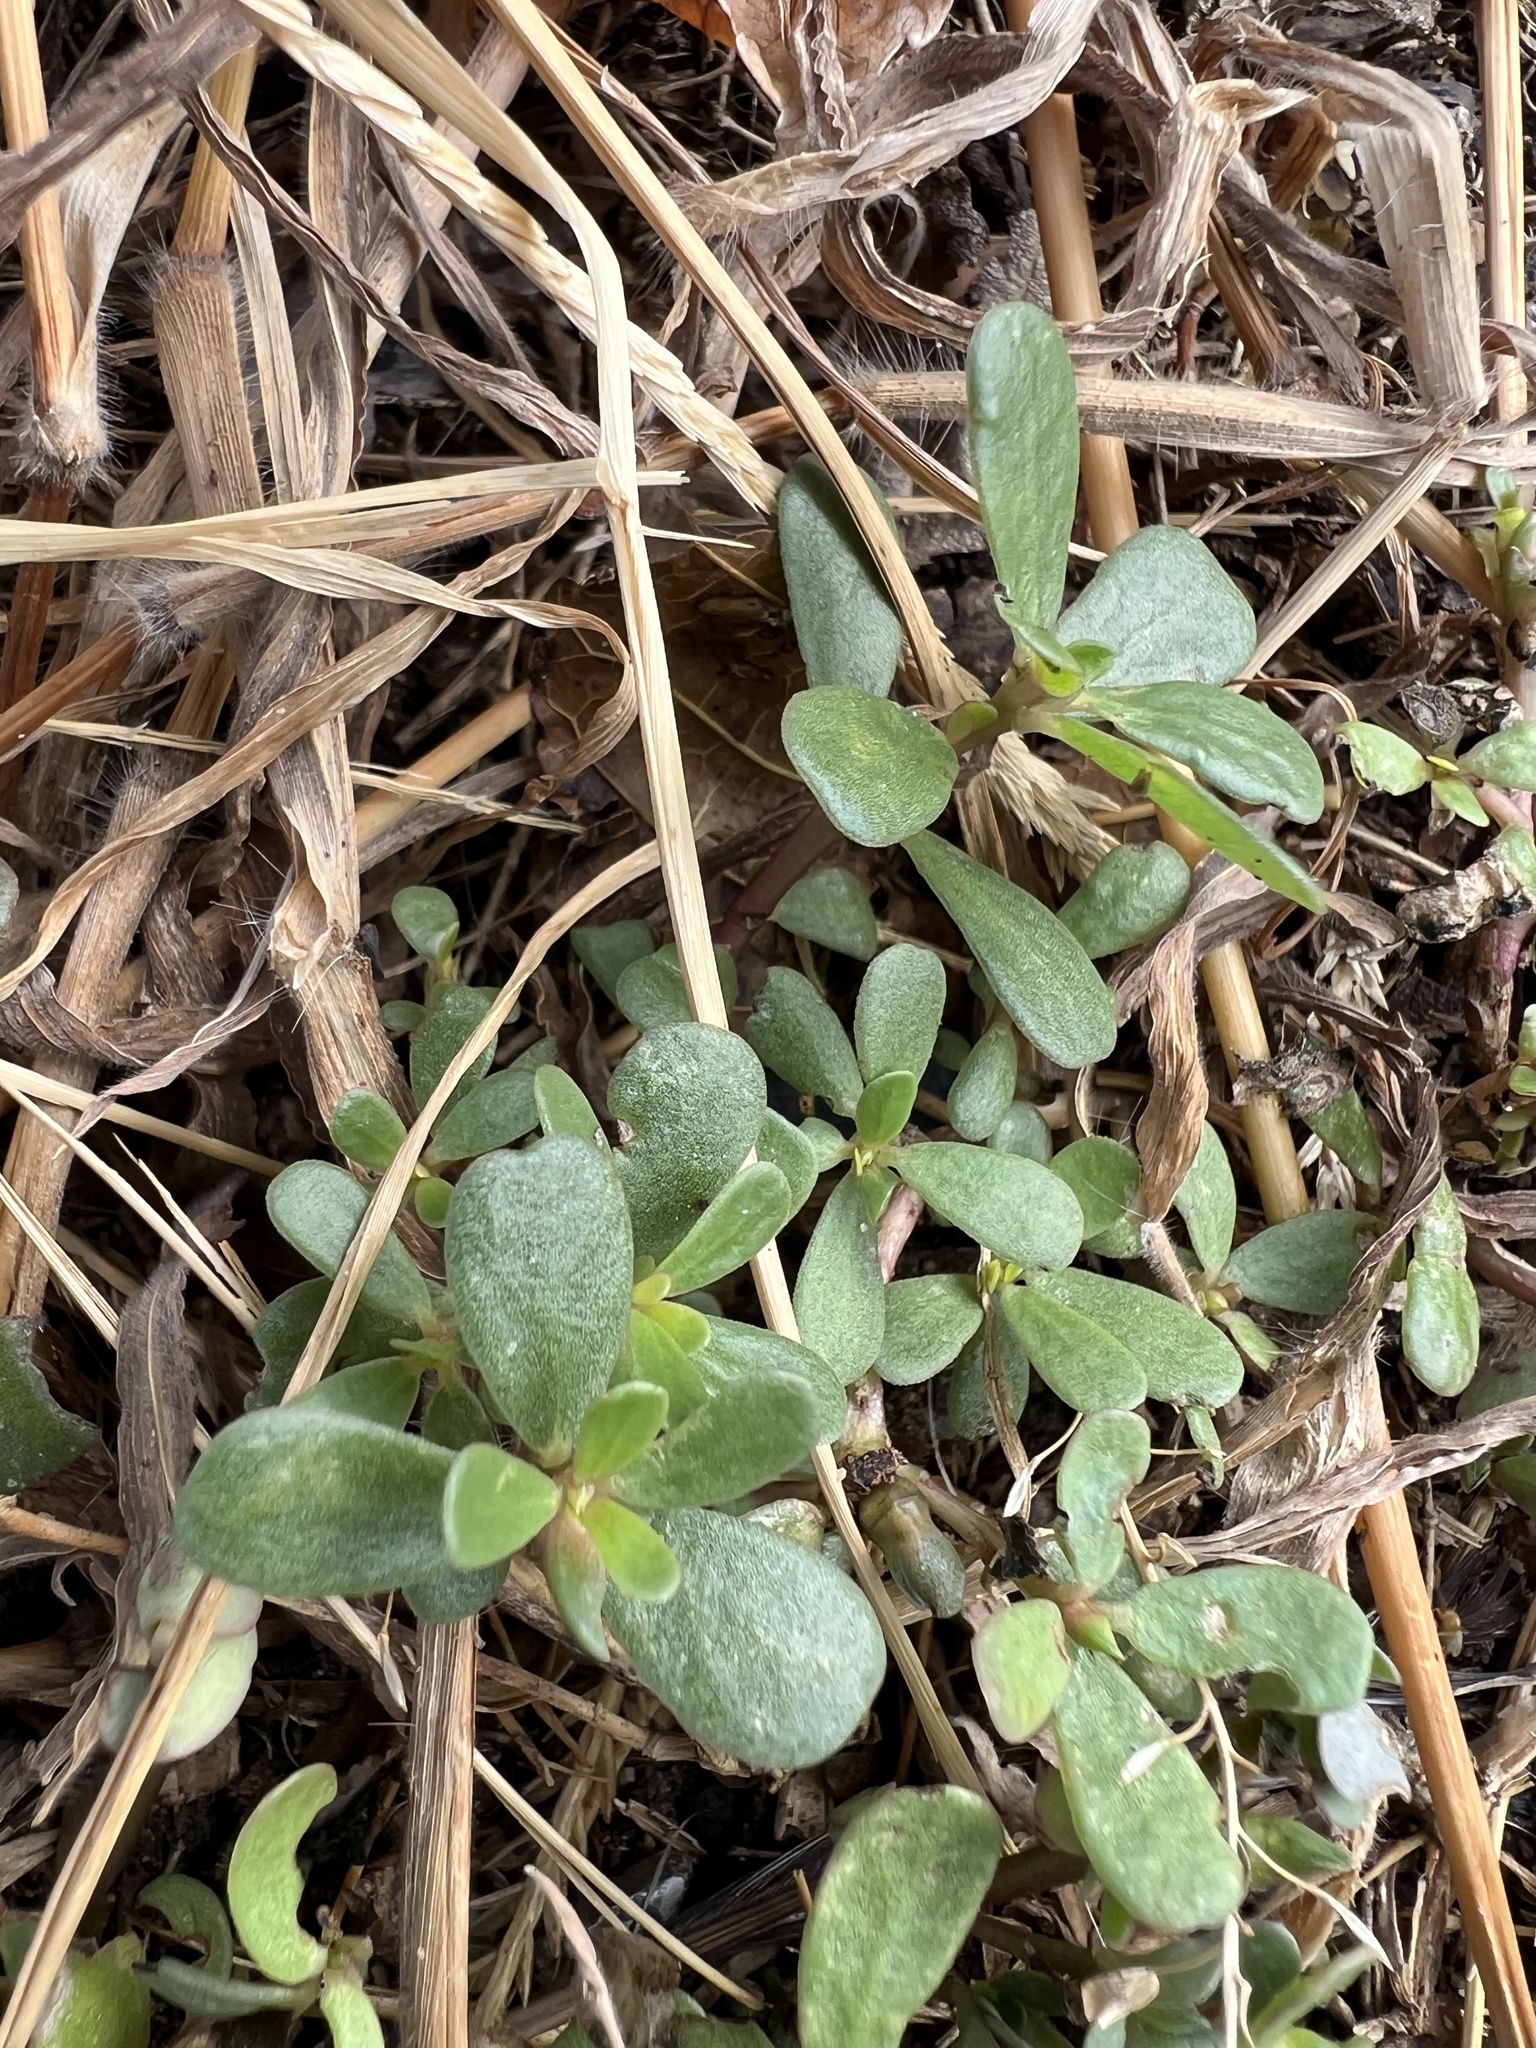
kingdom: Plantae
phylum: Tracheophyta
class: Magnoliopsida
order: Caryophyllales
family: Portulacaceae
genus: Portulaca
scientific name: Portulaca oleracea
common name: Common purslane
